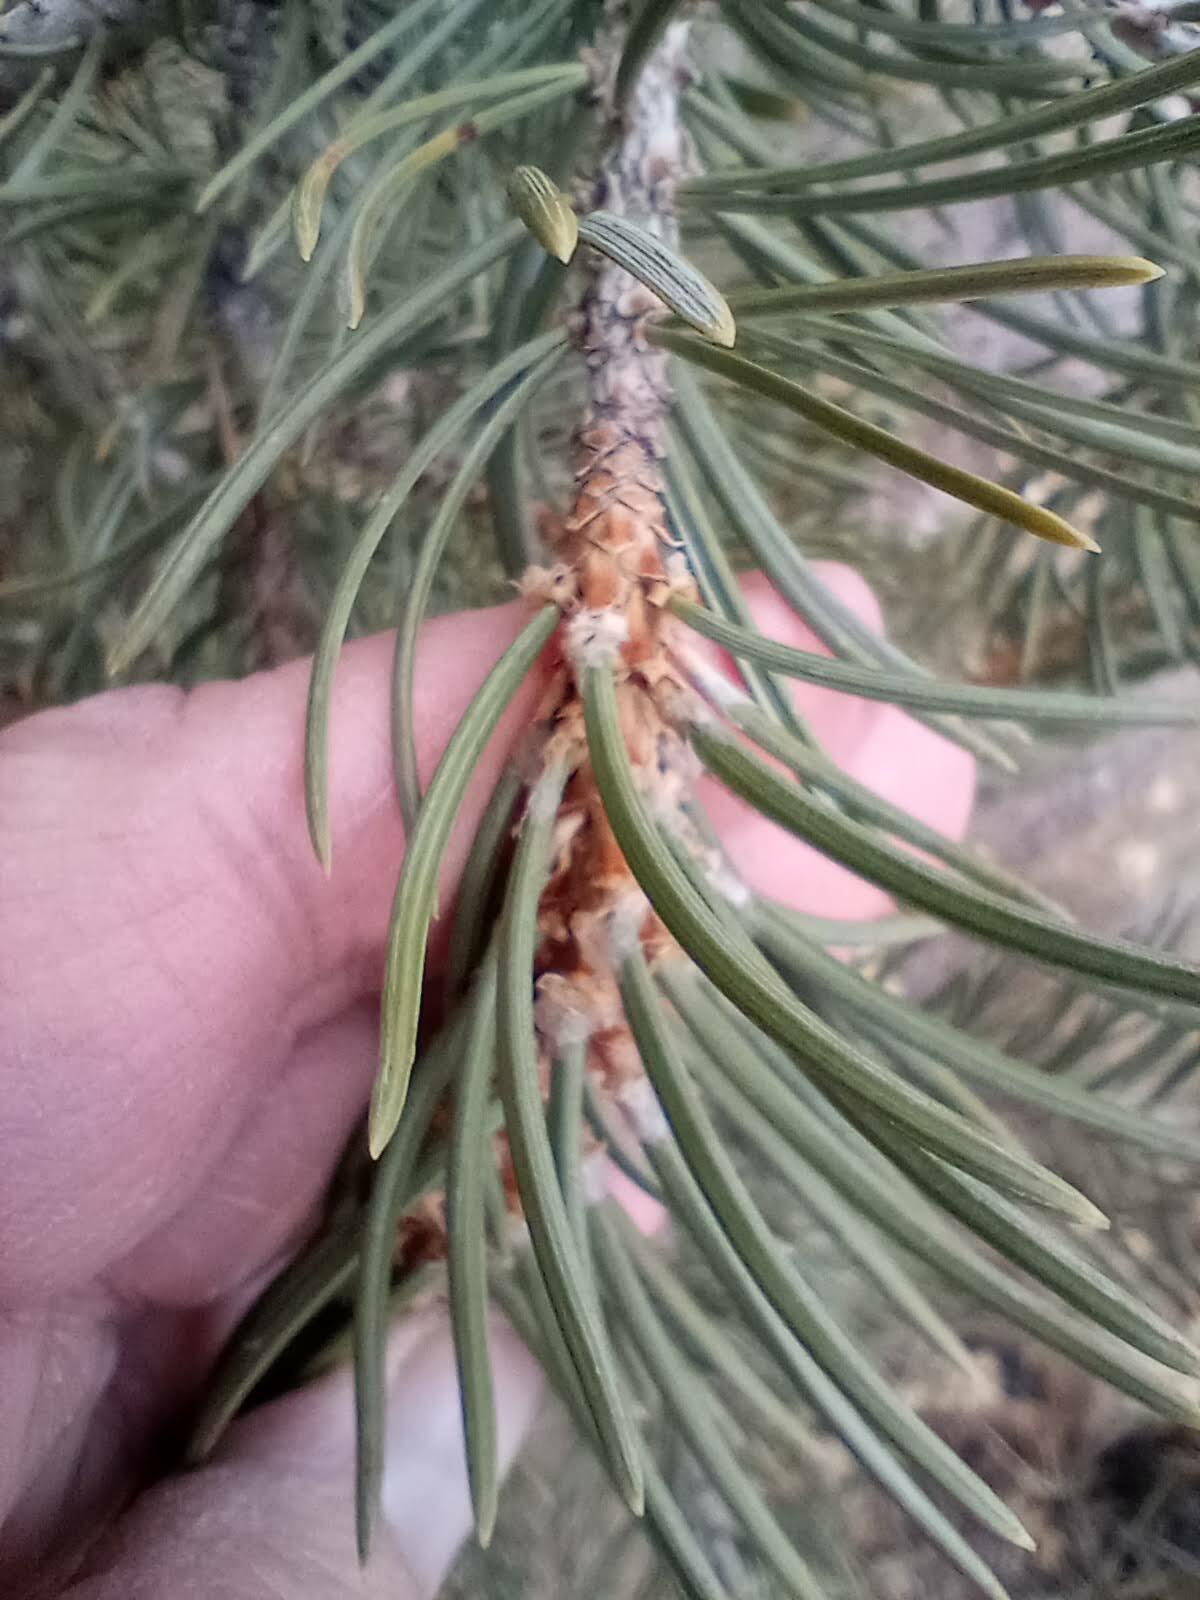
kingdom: Plantae
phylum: Tracheophyta
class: Pinopsida
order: Pinales
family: Pinaceae
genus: Pinus
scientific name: Pinus edulis
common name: Colorado pinyon
